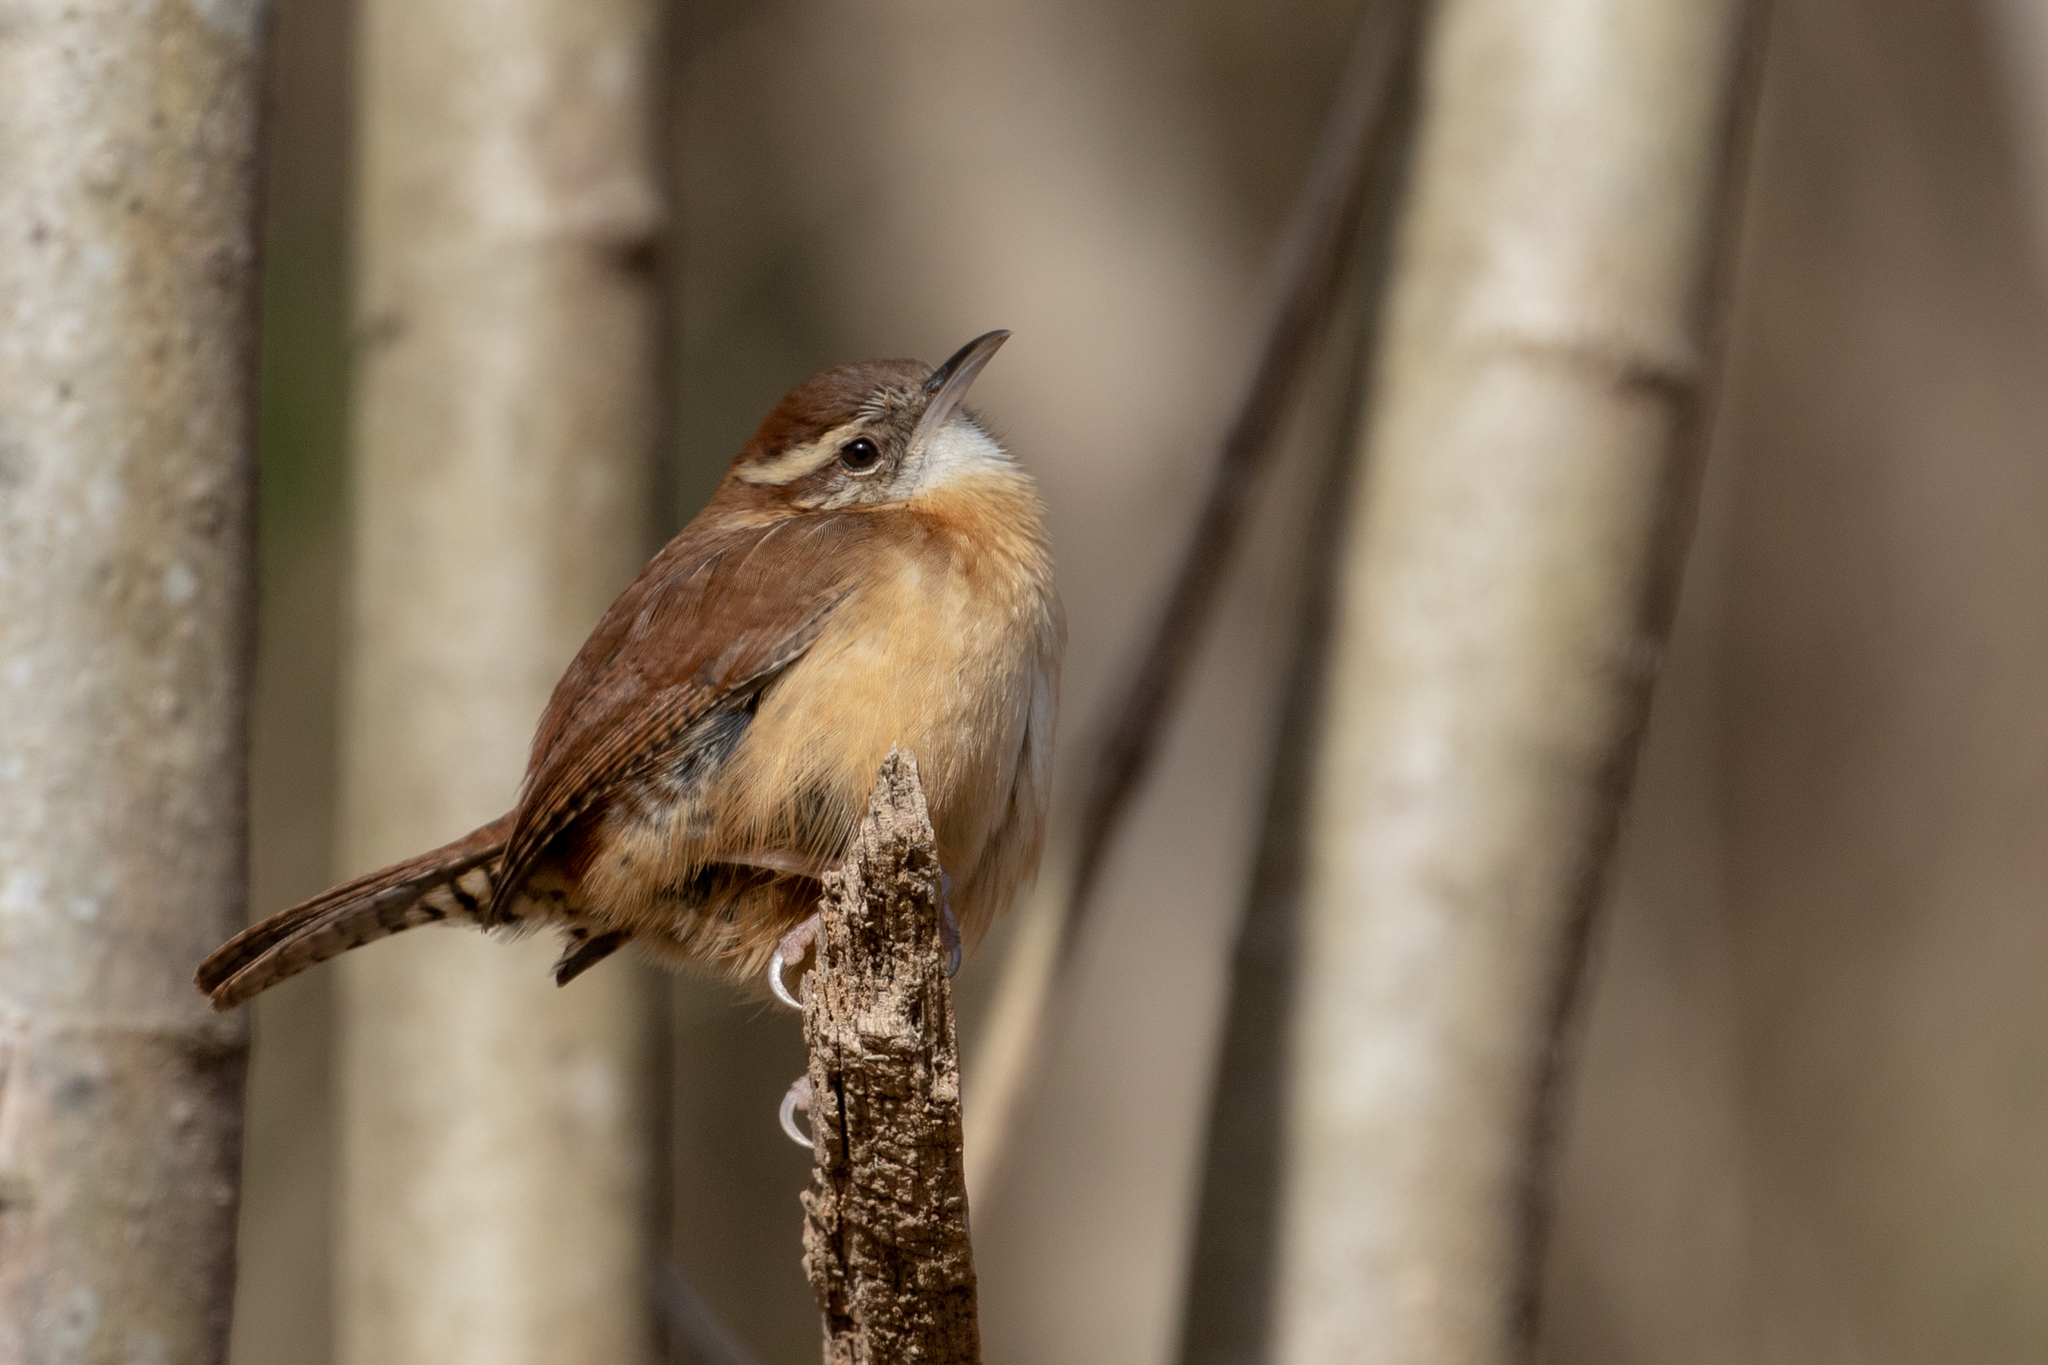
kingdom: Animalia
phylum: Chordata
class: Aves
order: Passeriformes
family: Troglodytidae
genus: Thryothorus
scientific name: Thryothorus ludovicianus
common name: Carolina wren
